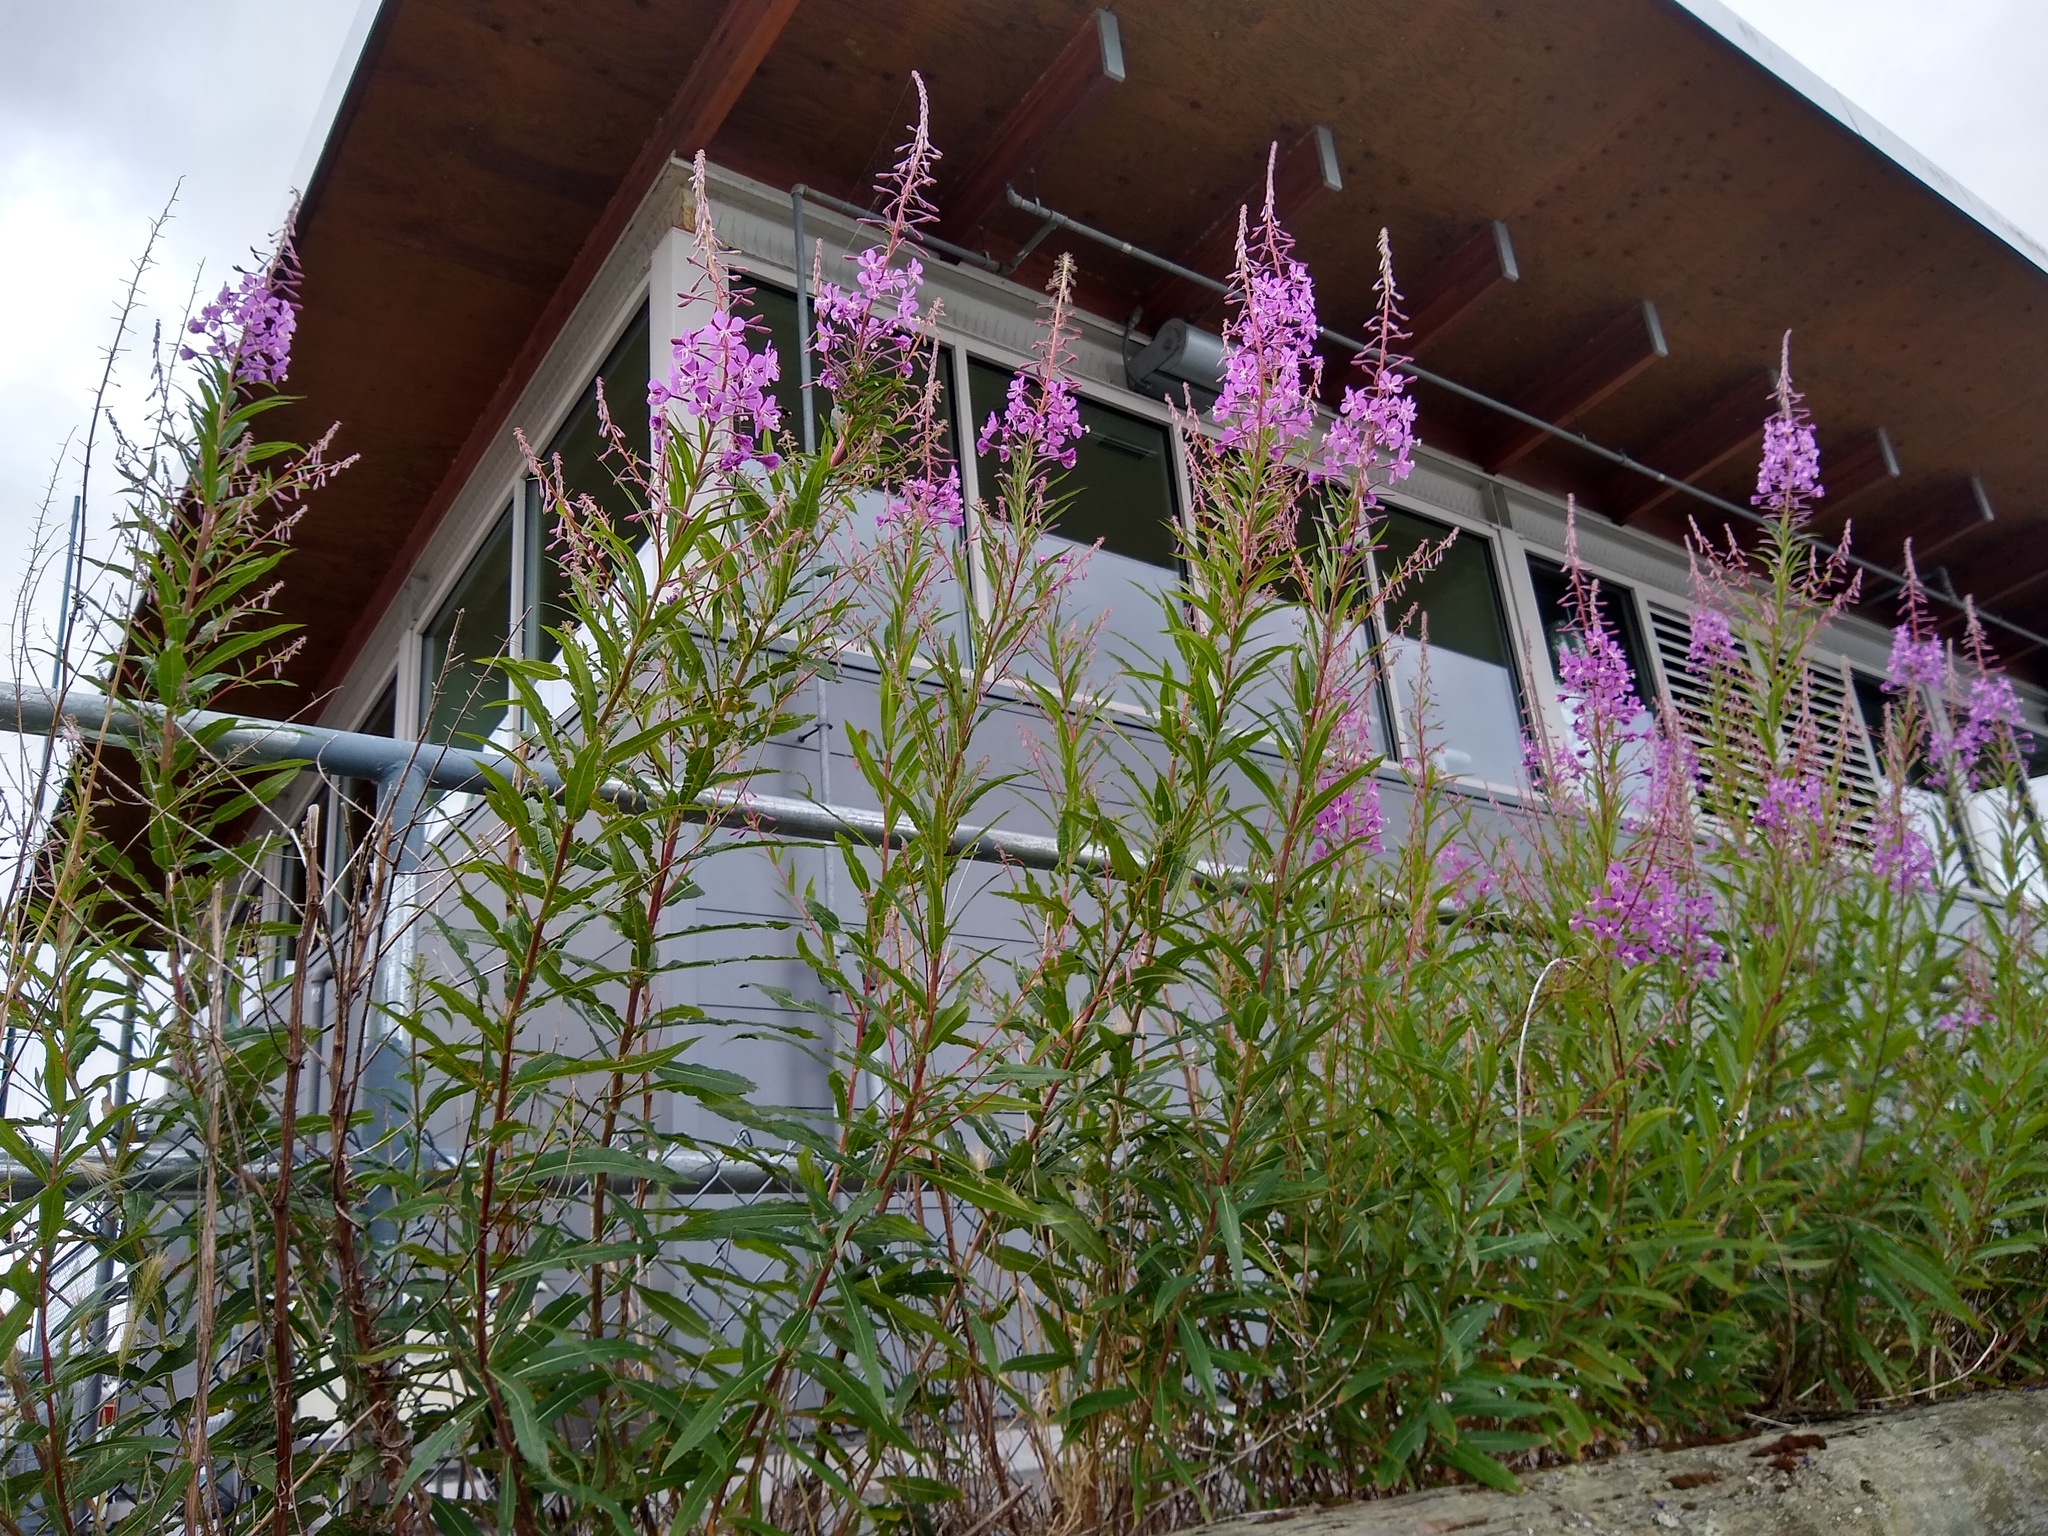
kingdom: Plantae
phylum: Tracheophyta
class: Magnoliopsida
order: Myrtales
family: Onagraceae
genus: Chamaenerion
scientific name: Chamaenerion angustifolium
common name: Fireweed
